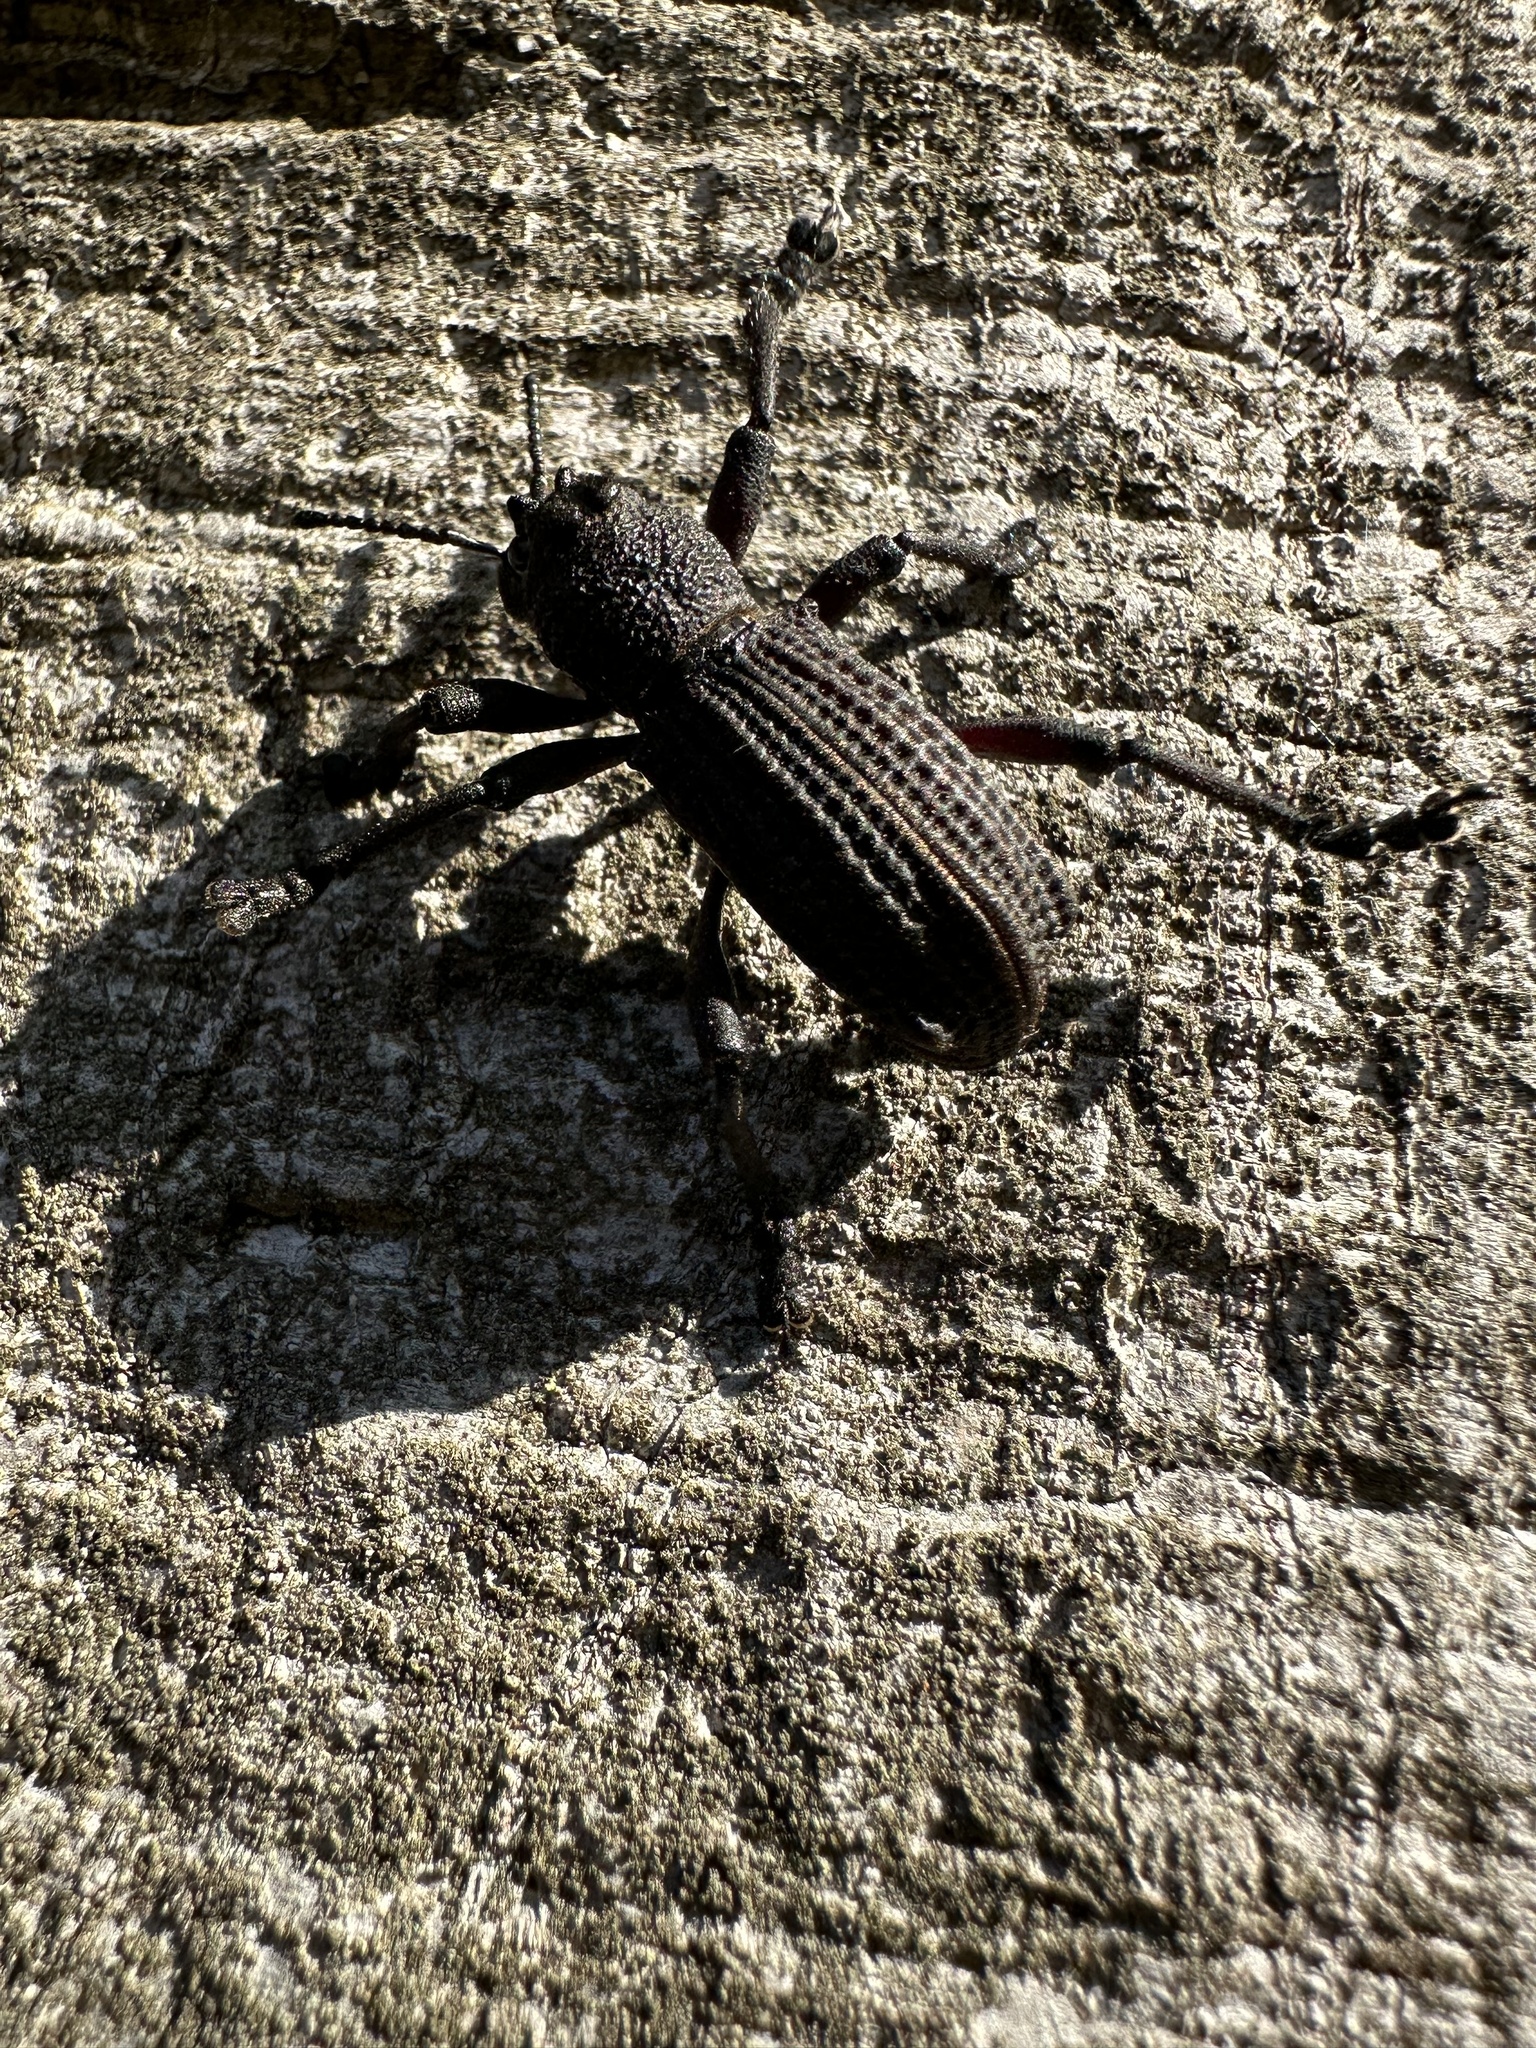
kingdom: Animalia
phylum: Arthropoda
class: Insecta
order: Coleoptera
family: Curculionidae
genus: Aegorhinus
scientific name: Aegorhinus
